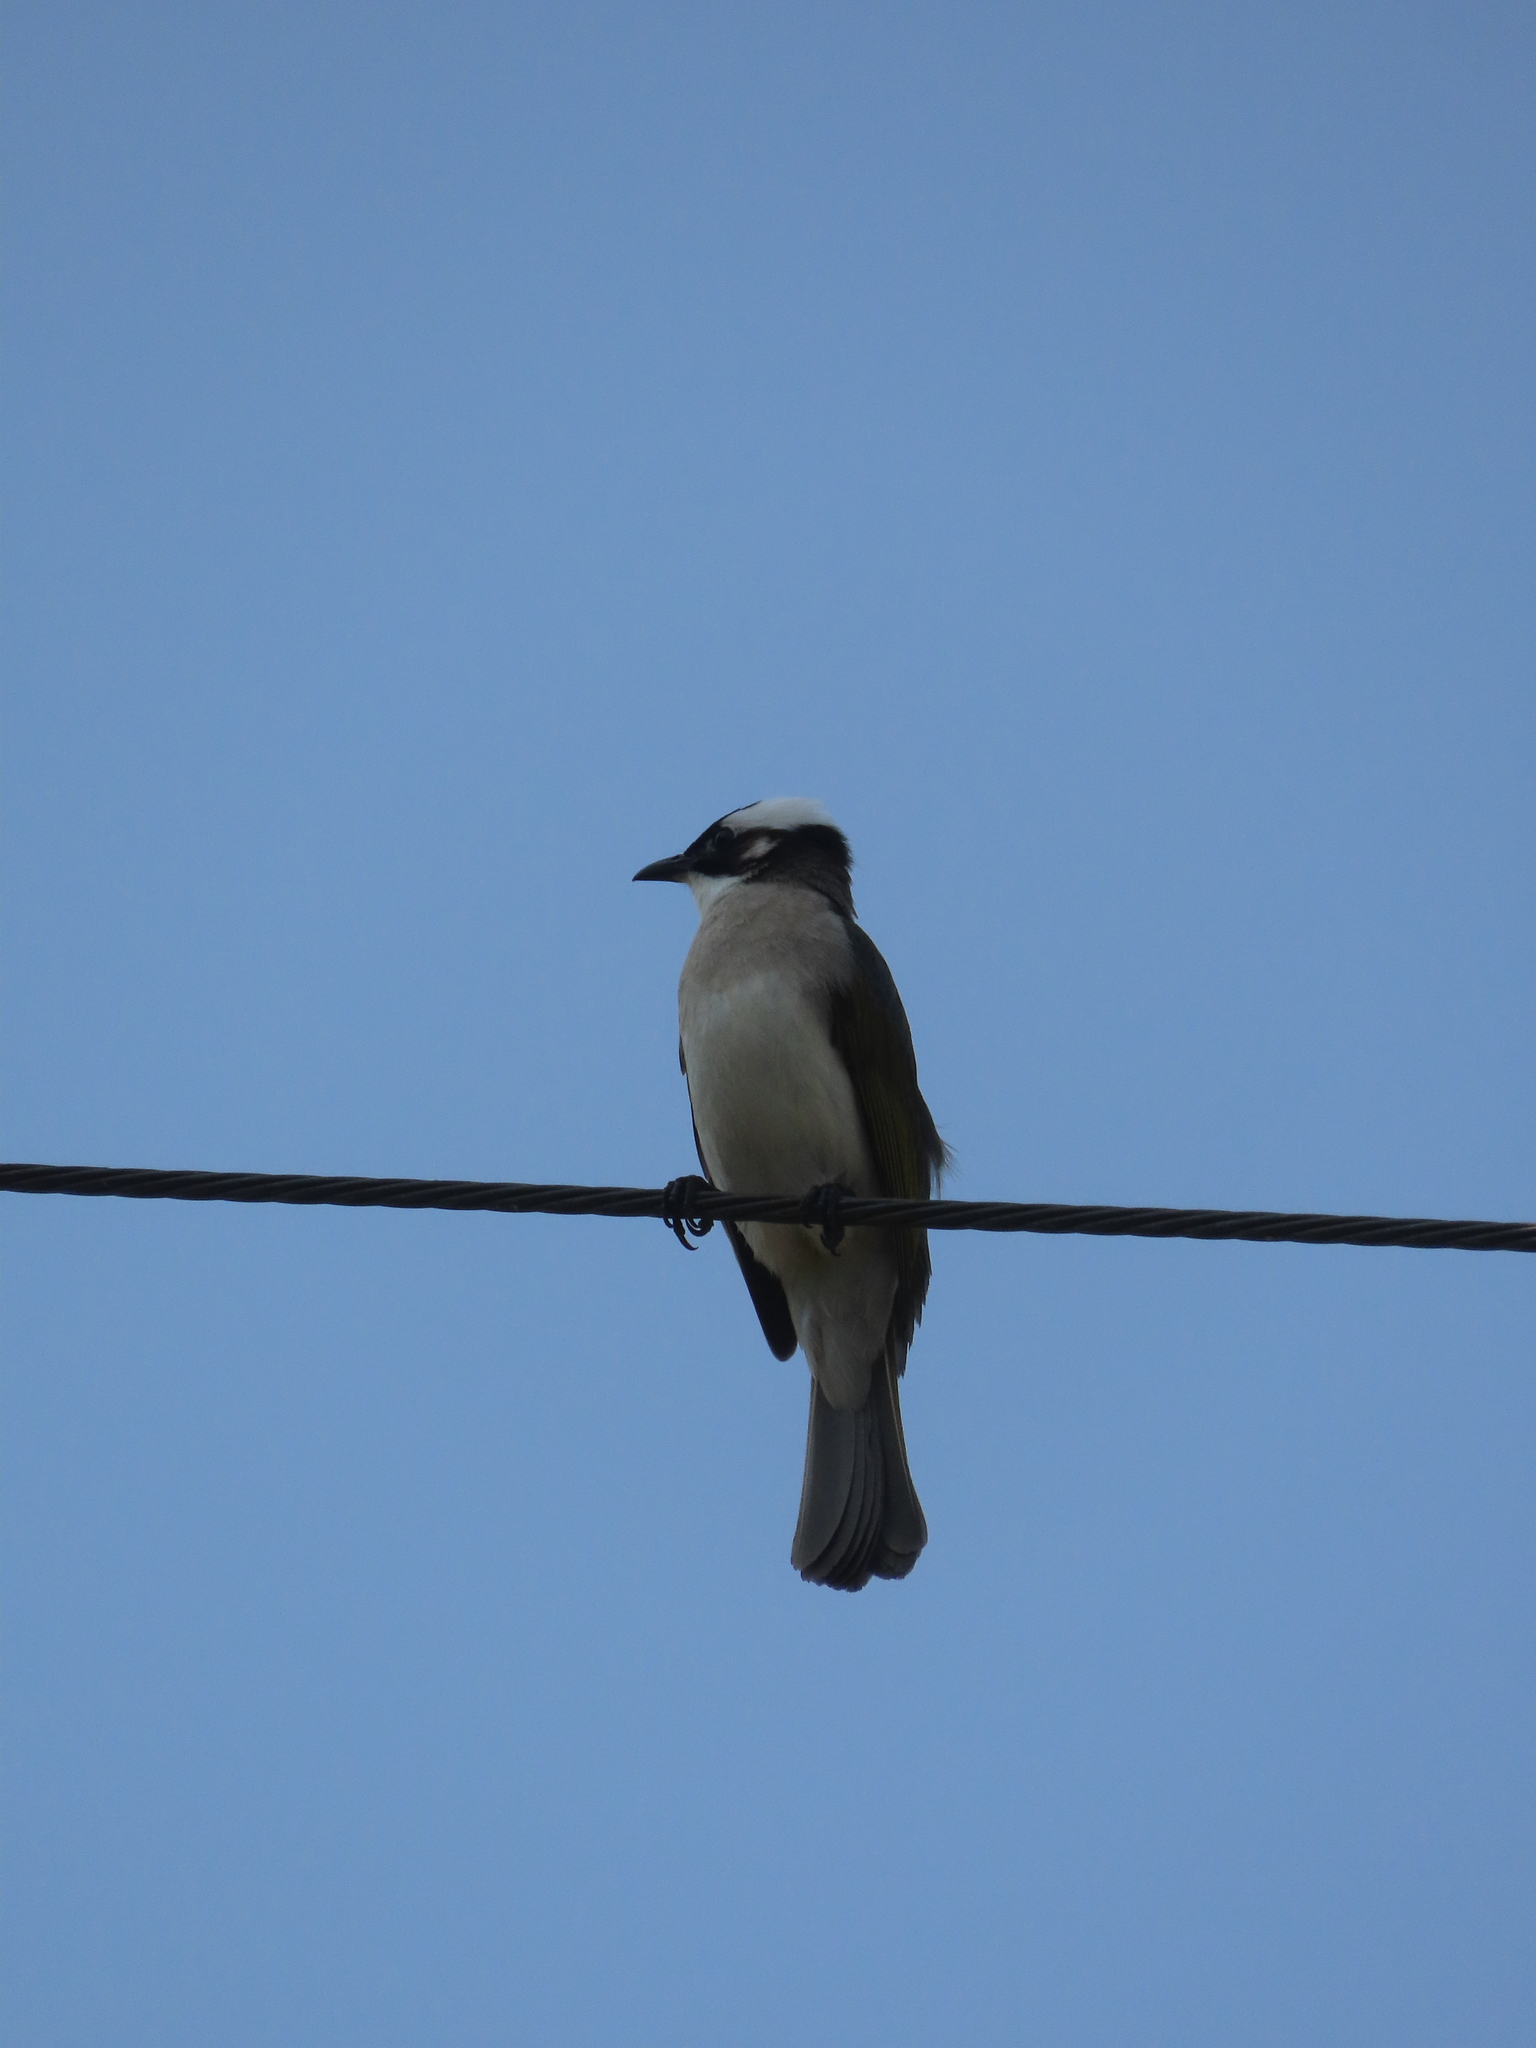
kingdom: Animalia
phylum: Chordata
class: Aves
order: Passeriformes
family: Pycnonotidae
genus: Pycnonotus
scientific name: Pycnonotus sinensis
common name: Light-vented bulbul
